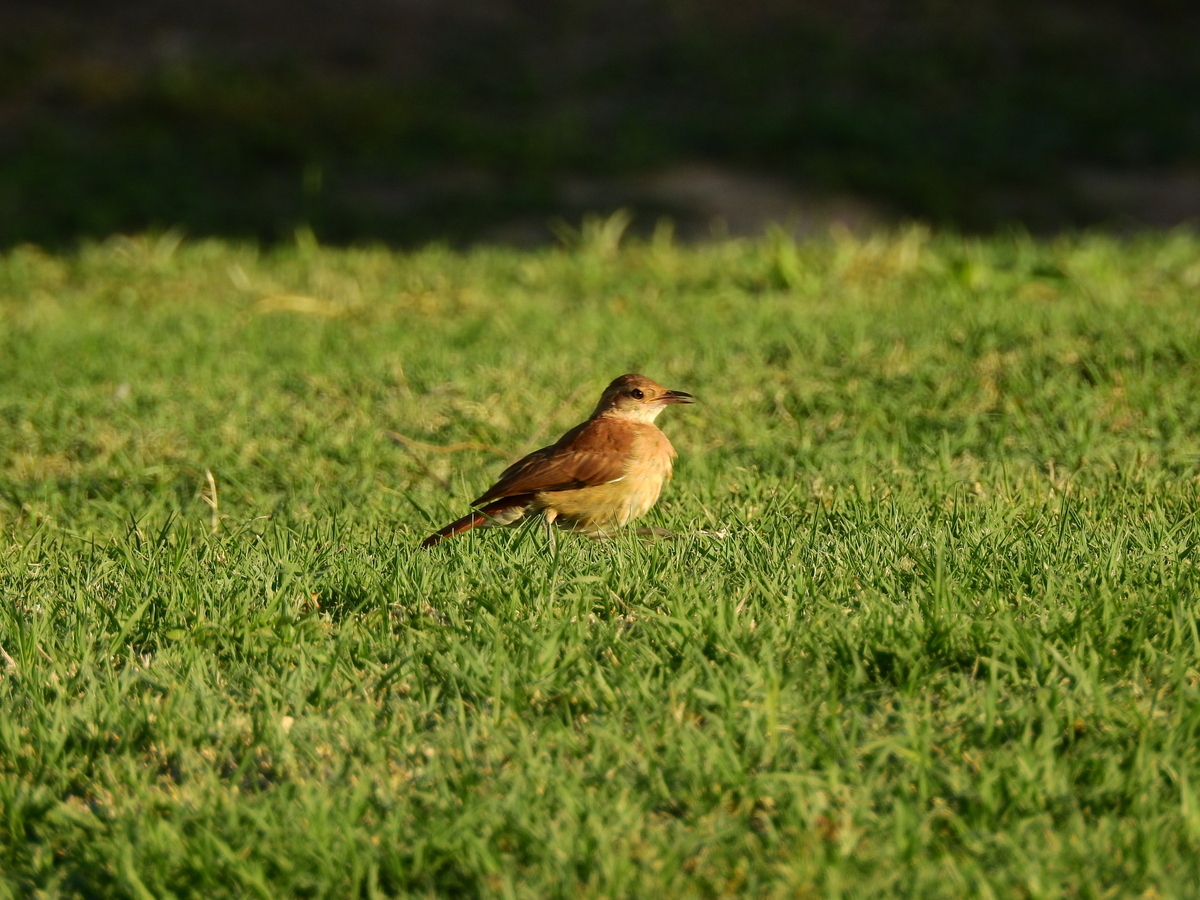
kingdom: Animalia
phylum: Chordata
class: Aves
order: Passeriformes
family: Furnariidae
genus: Furnarius
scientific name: Furnarius rufus
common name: Rufous hornero
